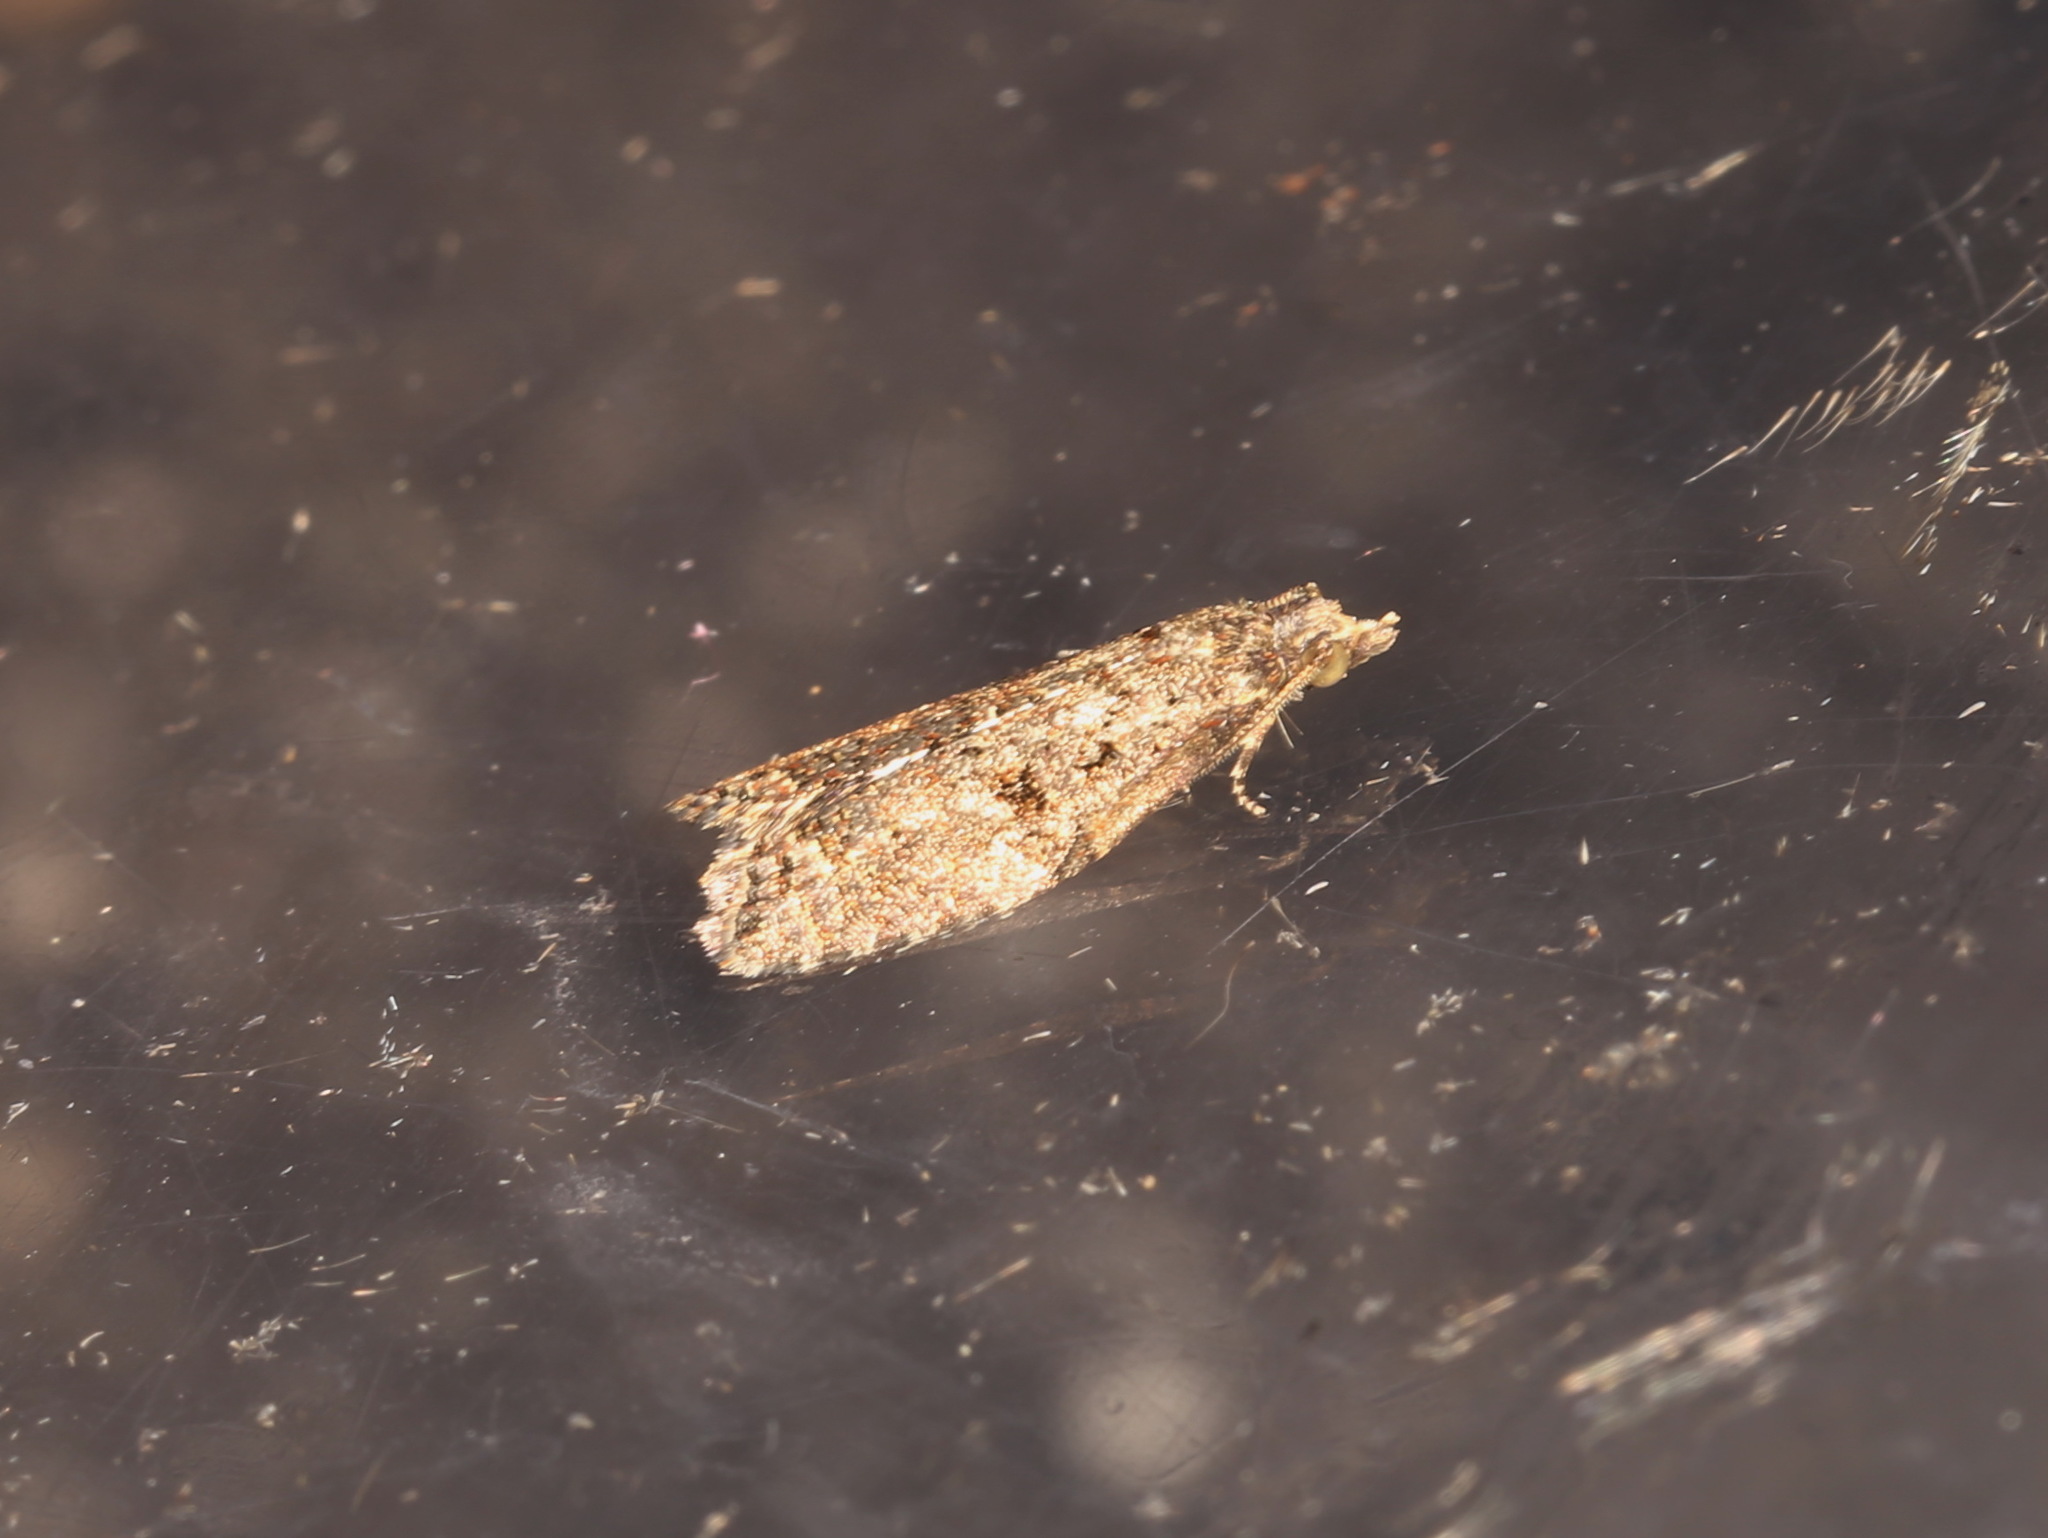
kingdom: Animalia
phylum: Arthropoda
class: Insecta
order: Lepidoptera
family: Tortricidae
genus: Capua
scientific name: Capua intractana
